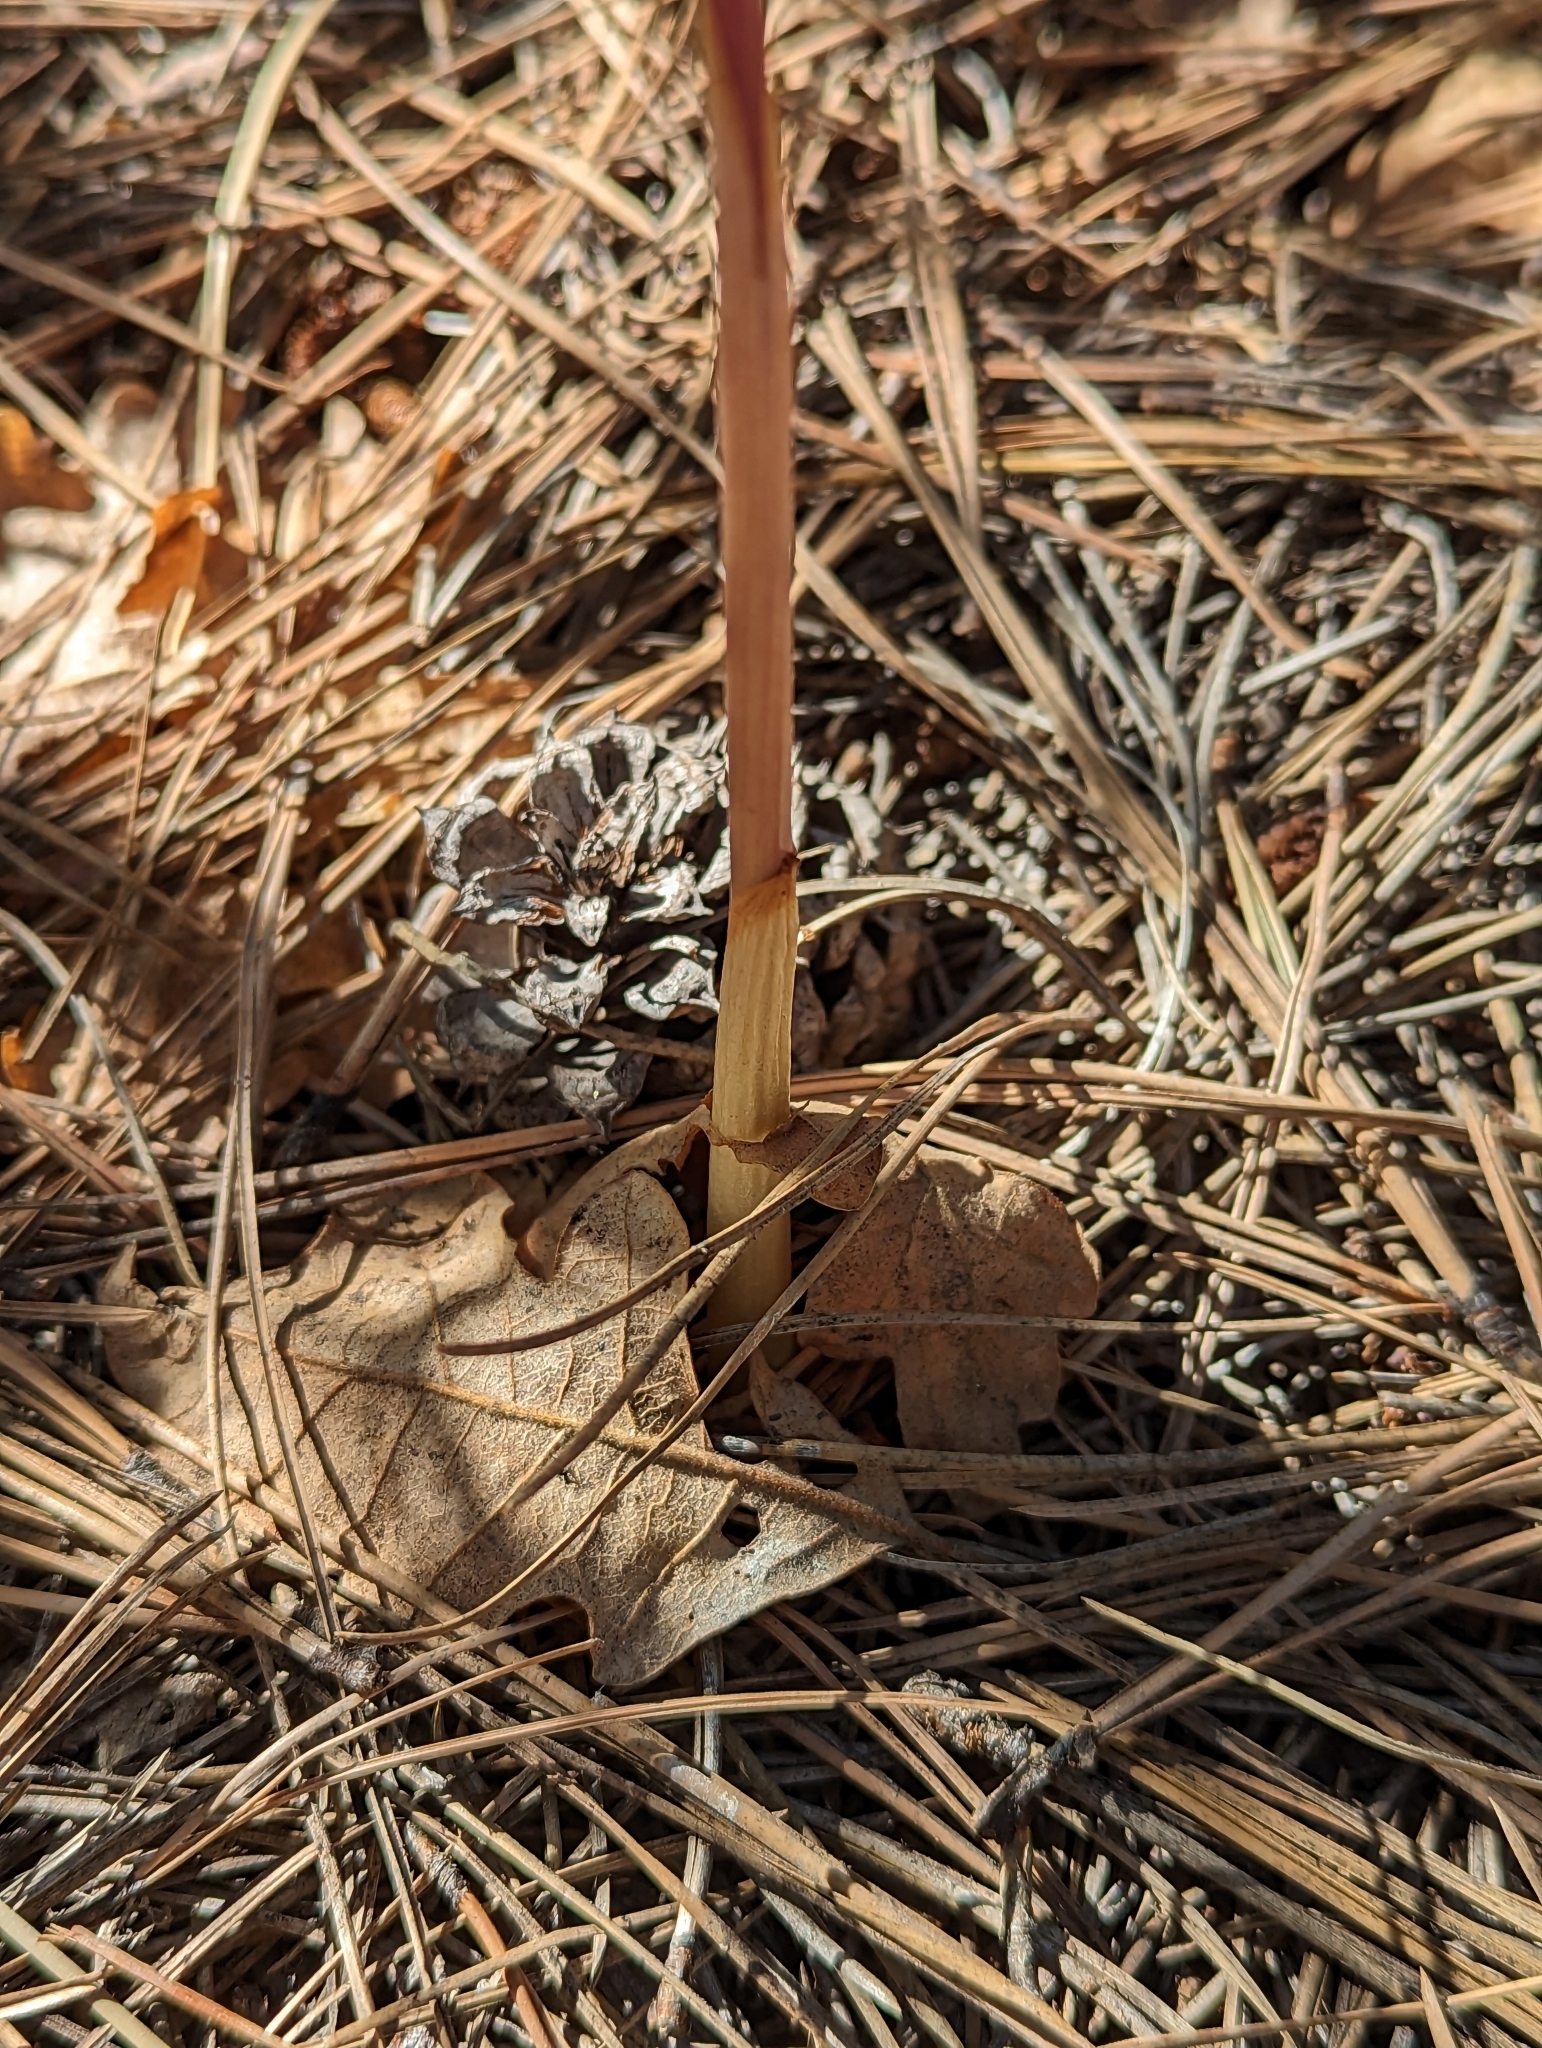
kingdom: Plantae
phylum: Tracheophyta
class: Liliopsida
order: Asparagales
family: Orchidaceae
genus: Corallorhiza
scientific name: Corallorhiza wisteriana
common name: Spring coralroot
